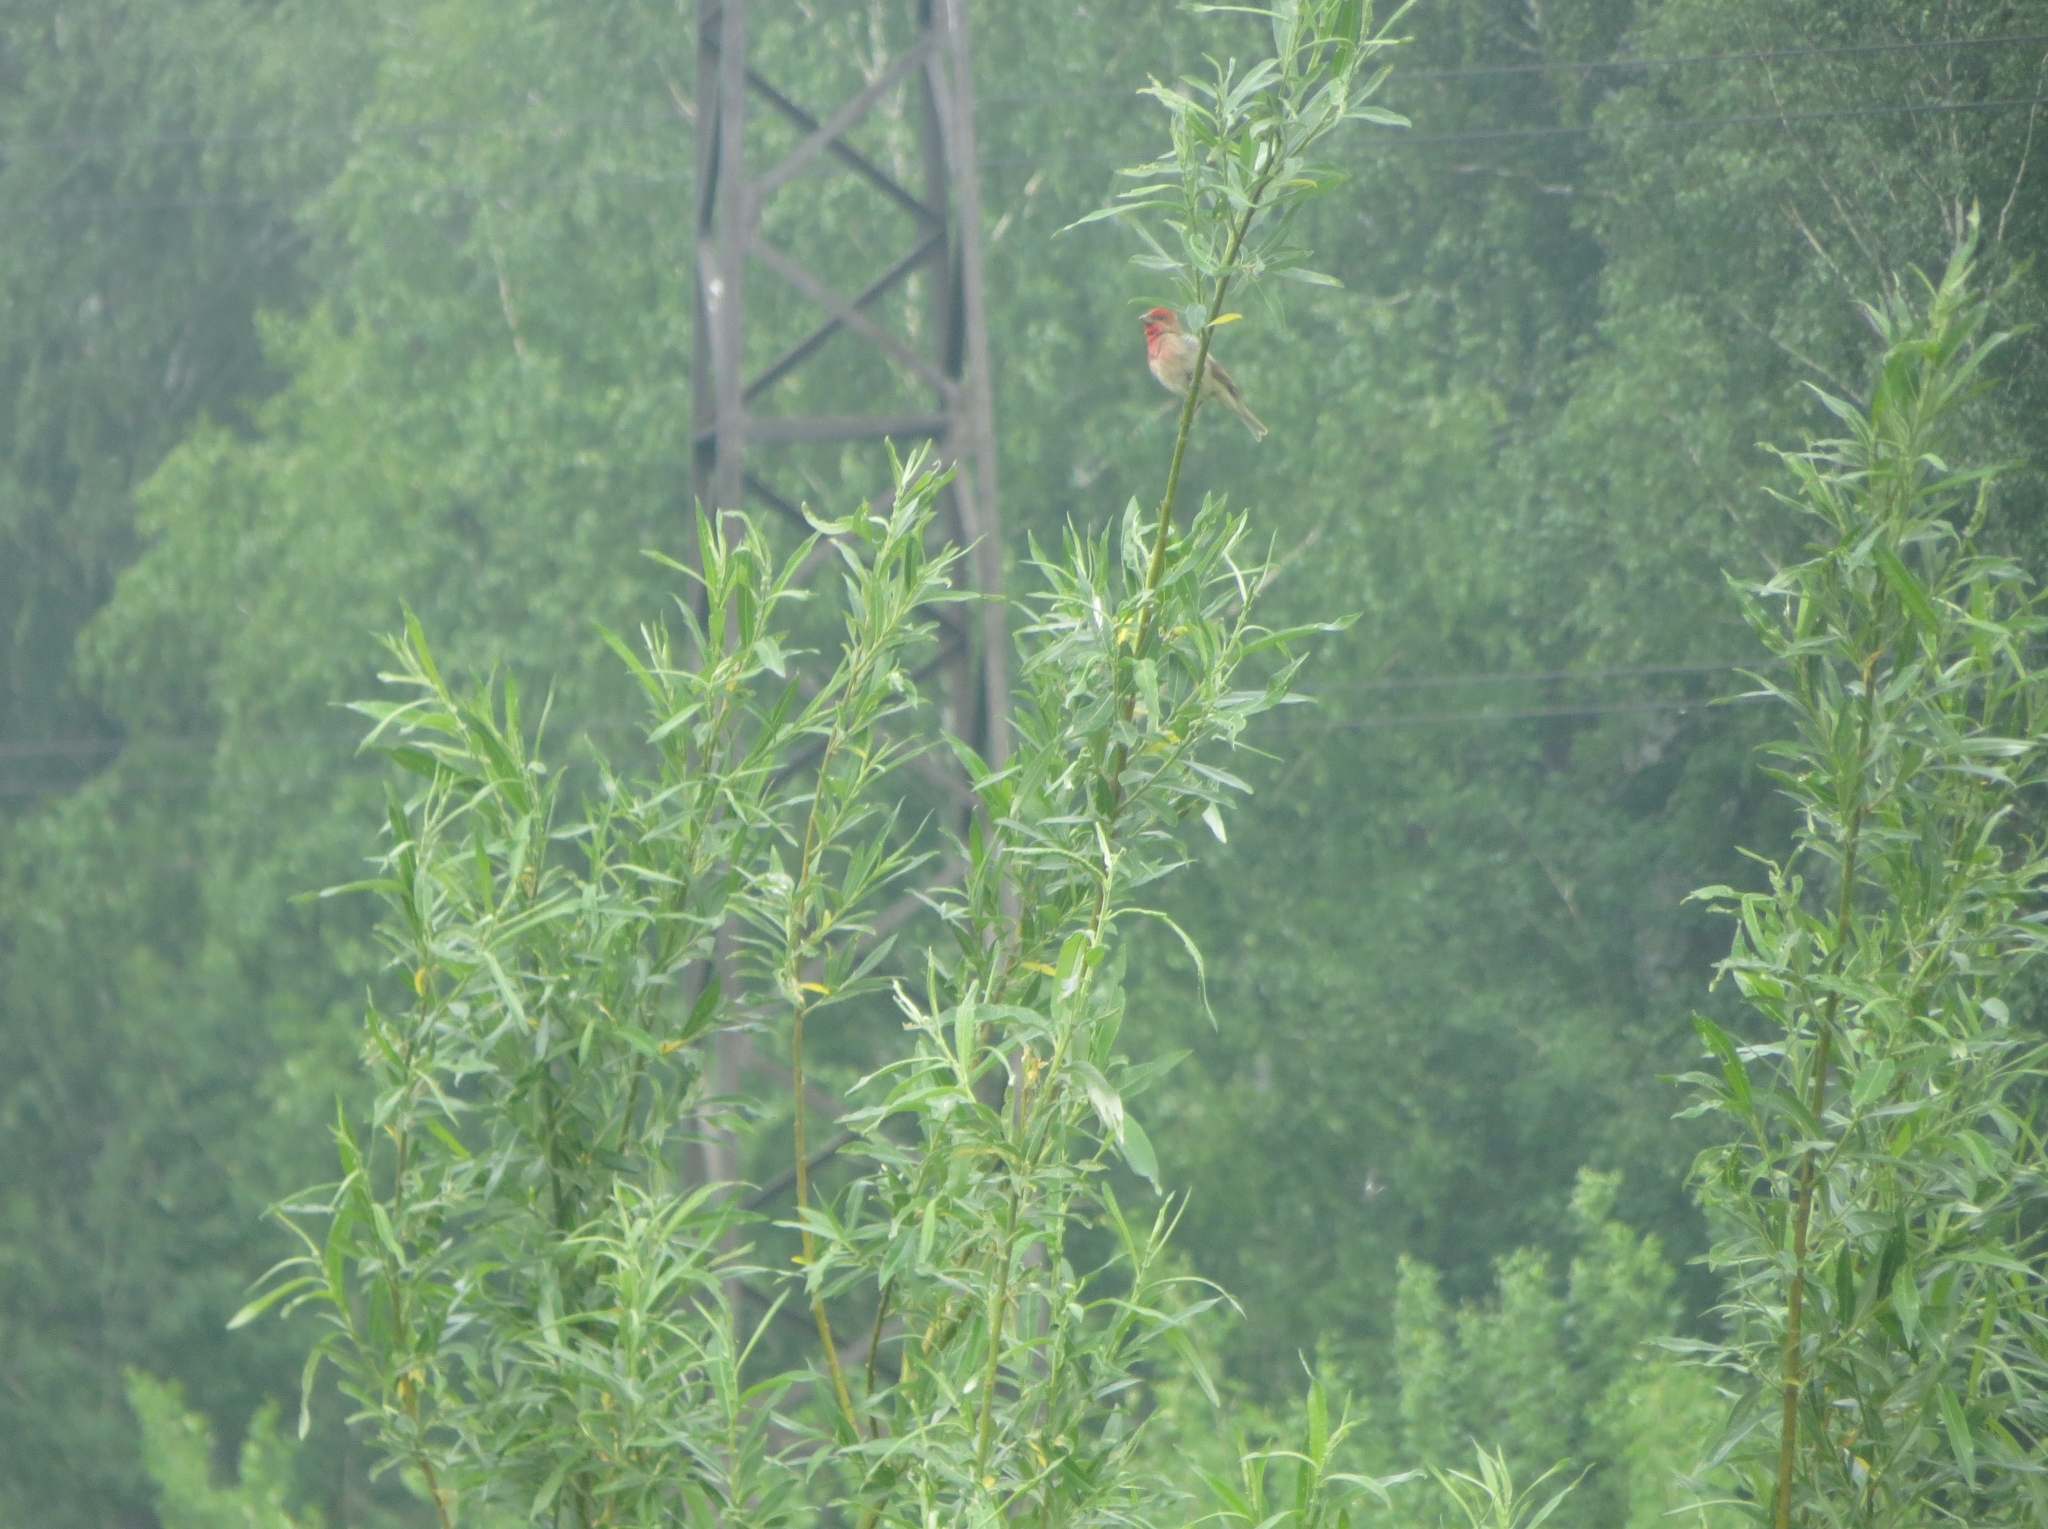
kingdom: Animalia
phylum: Chordata
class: Aves
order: Passeriformes
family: Fringillidae
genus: Carpodacus
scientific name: Carpodacus erythrinus
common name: Common rosefinch
